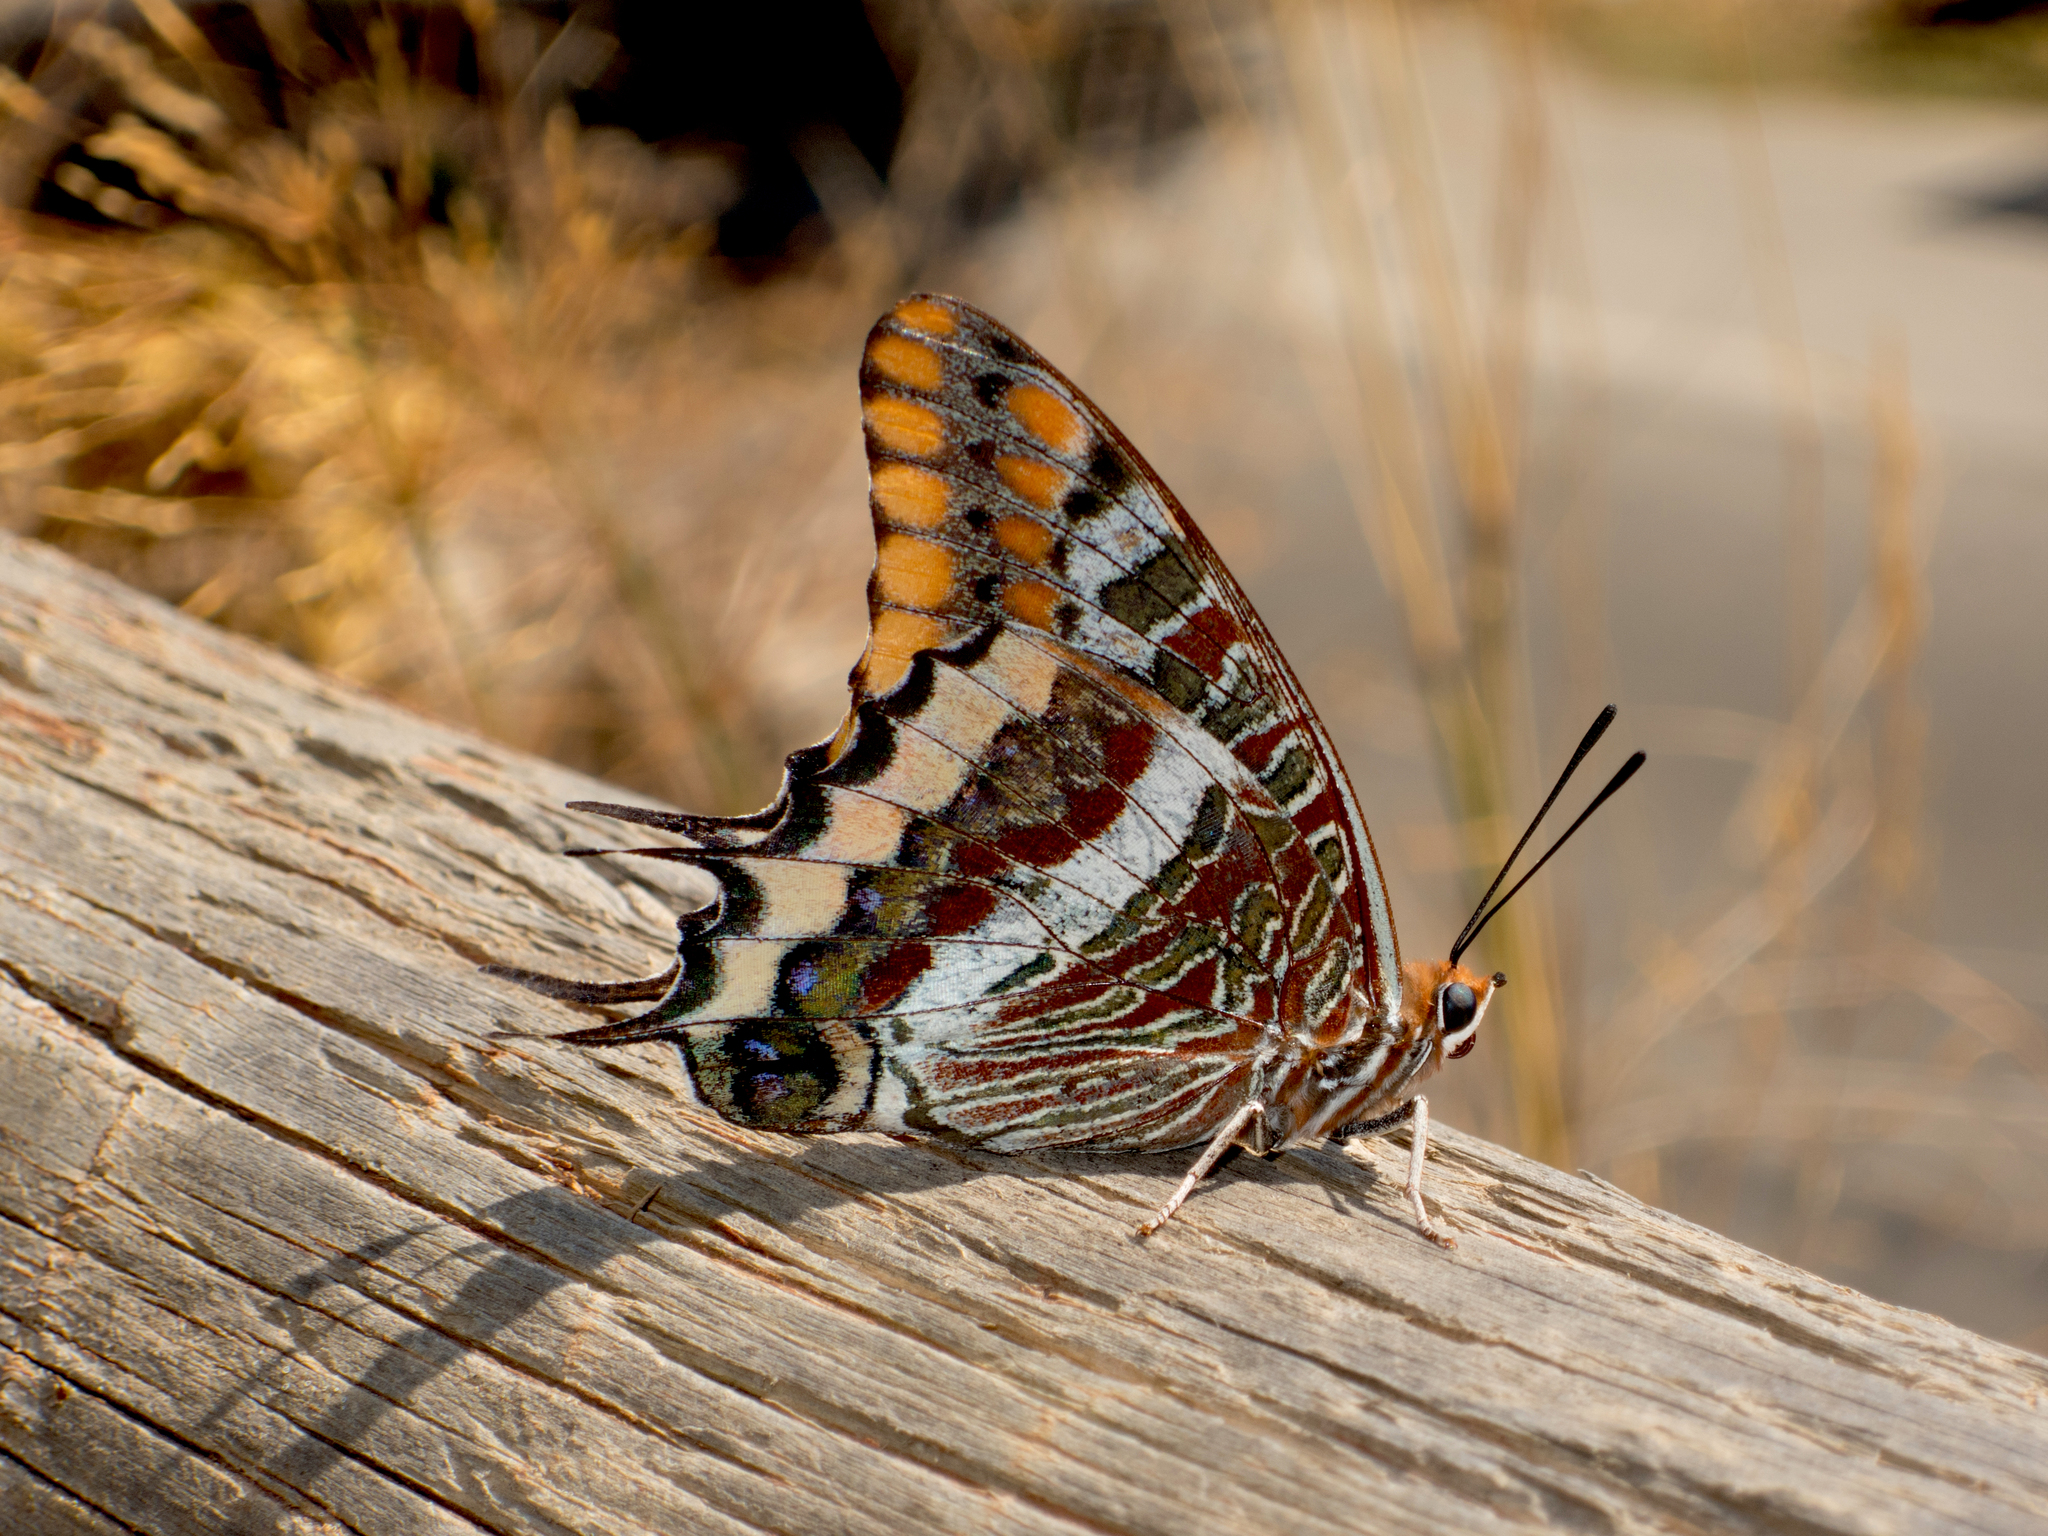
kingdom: Animalia
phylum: Arthropoda
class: Insecta
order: Lepidoptera
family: Nymphalidae
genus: Charaxes
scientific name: Charaxes jasius
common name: Two tailed pasha
